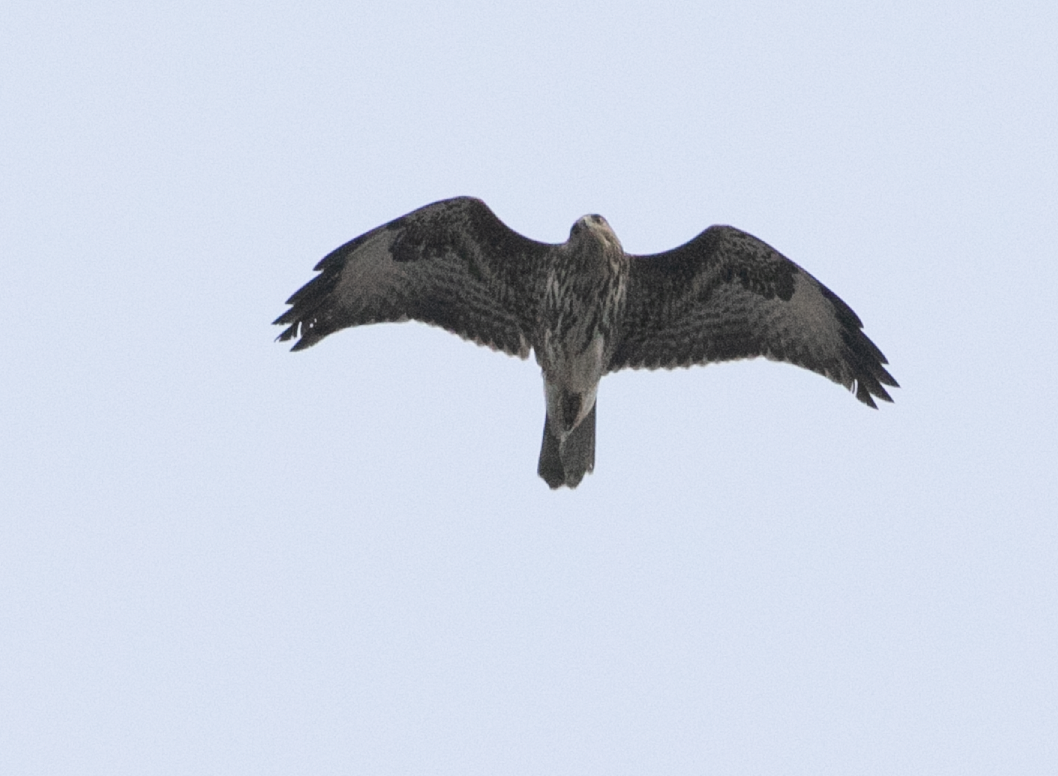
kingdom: Animalia
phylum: Chordata
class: Aves
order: Accipitriformes
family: Accipitridae
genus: Buteo
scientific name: Buteo buteo
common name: Common buzzard
